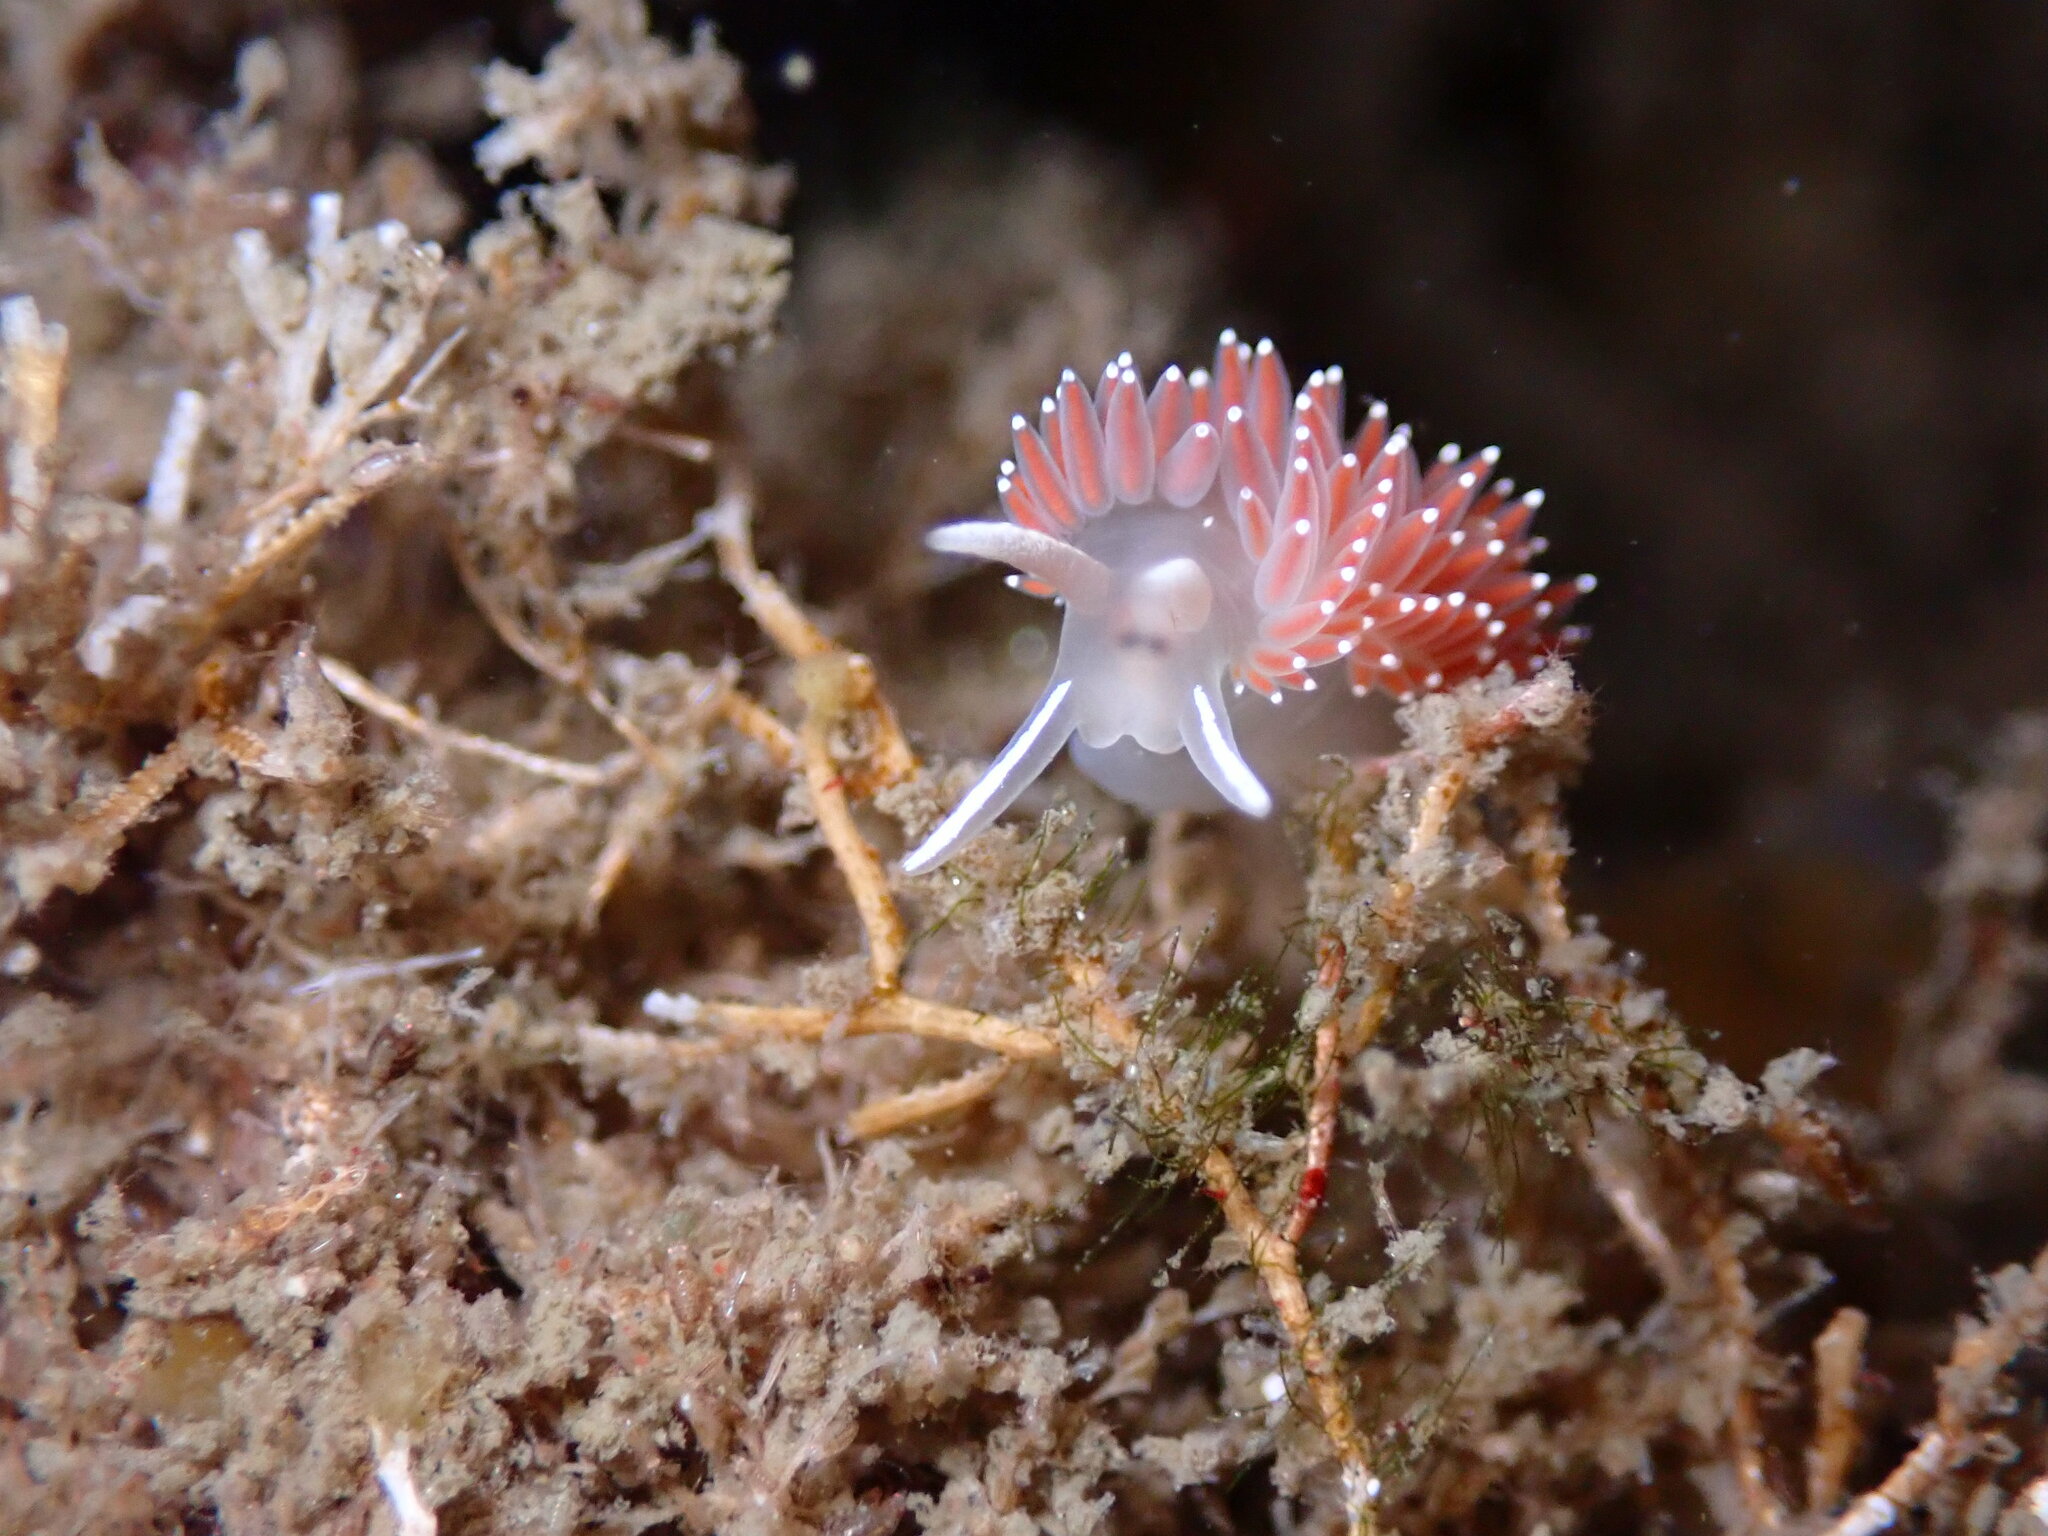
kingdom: Animalia
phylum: Mollusca
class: Gastropoda
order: Nudibranchia
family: Coryphellidae
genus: Coryphella
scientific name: Coryphella verrucosa
